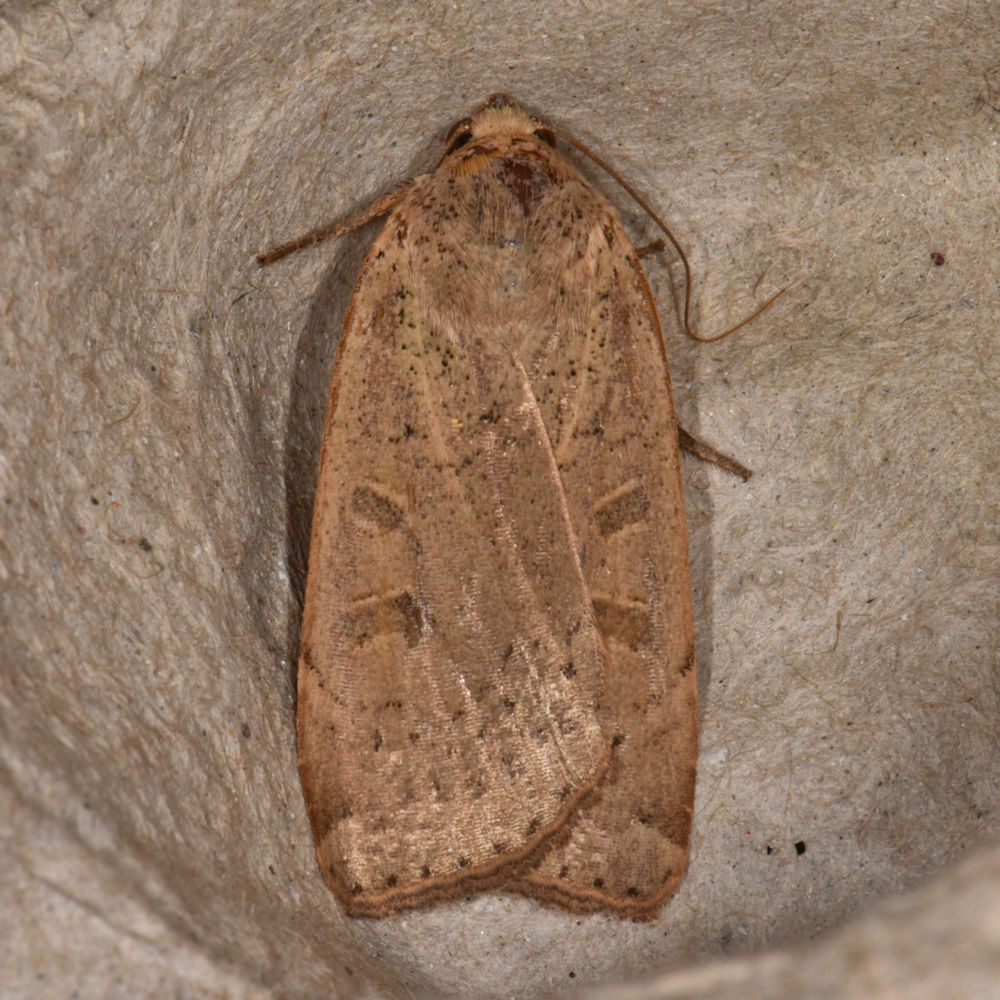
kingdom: Animalia
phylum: Arthropoda
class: Insecta
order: Lepidoptera
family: Noctuidae
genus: Noctua
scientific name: Noctua comes
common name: Lesser yellow underwing
